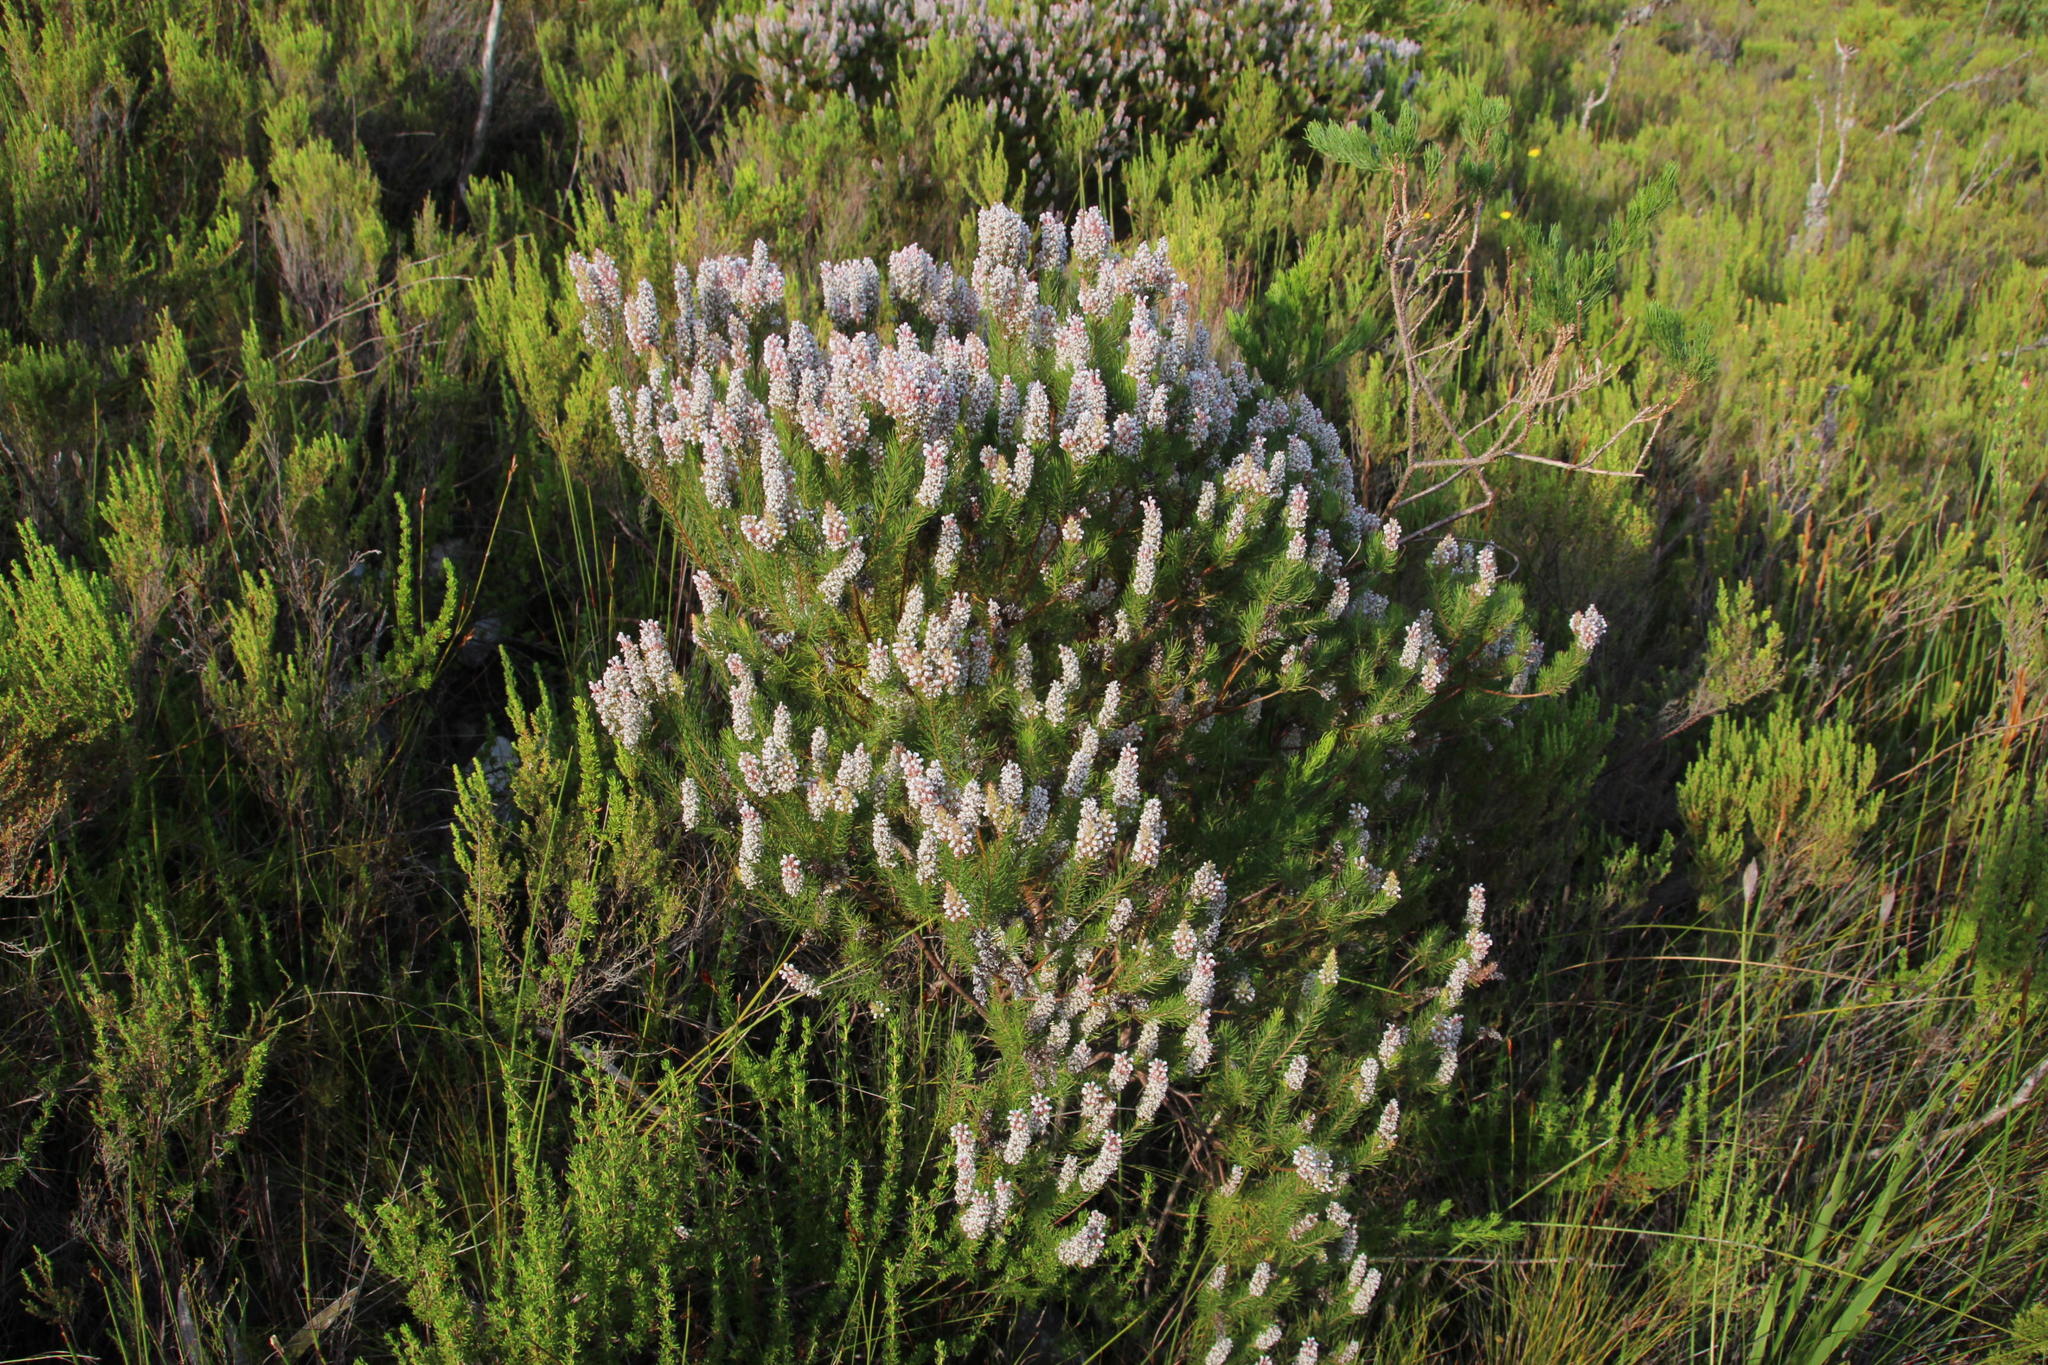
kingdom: Plantae
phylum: Tracheophyta
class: Magnoliopsida
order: Proteales
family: Proteaceae
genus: Spatalla
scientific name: Spatalla parilis
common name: Spike spoon
